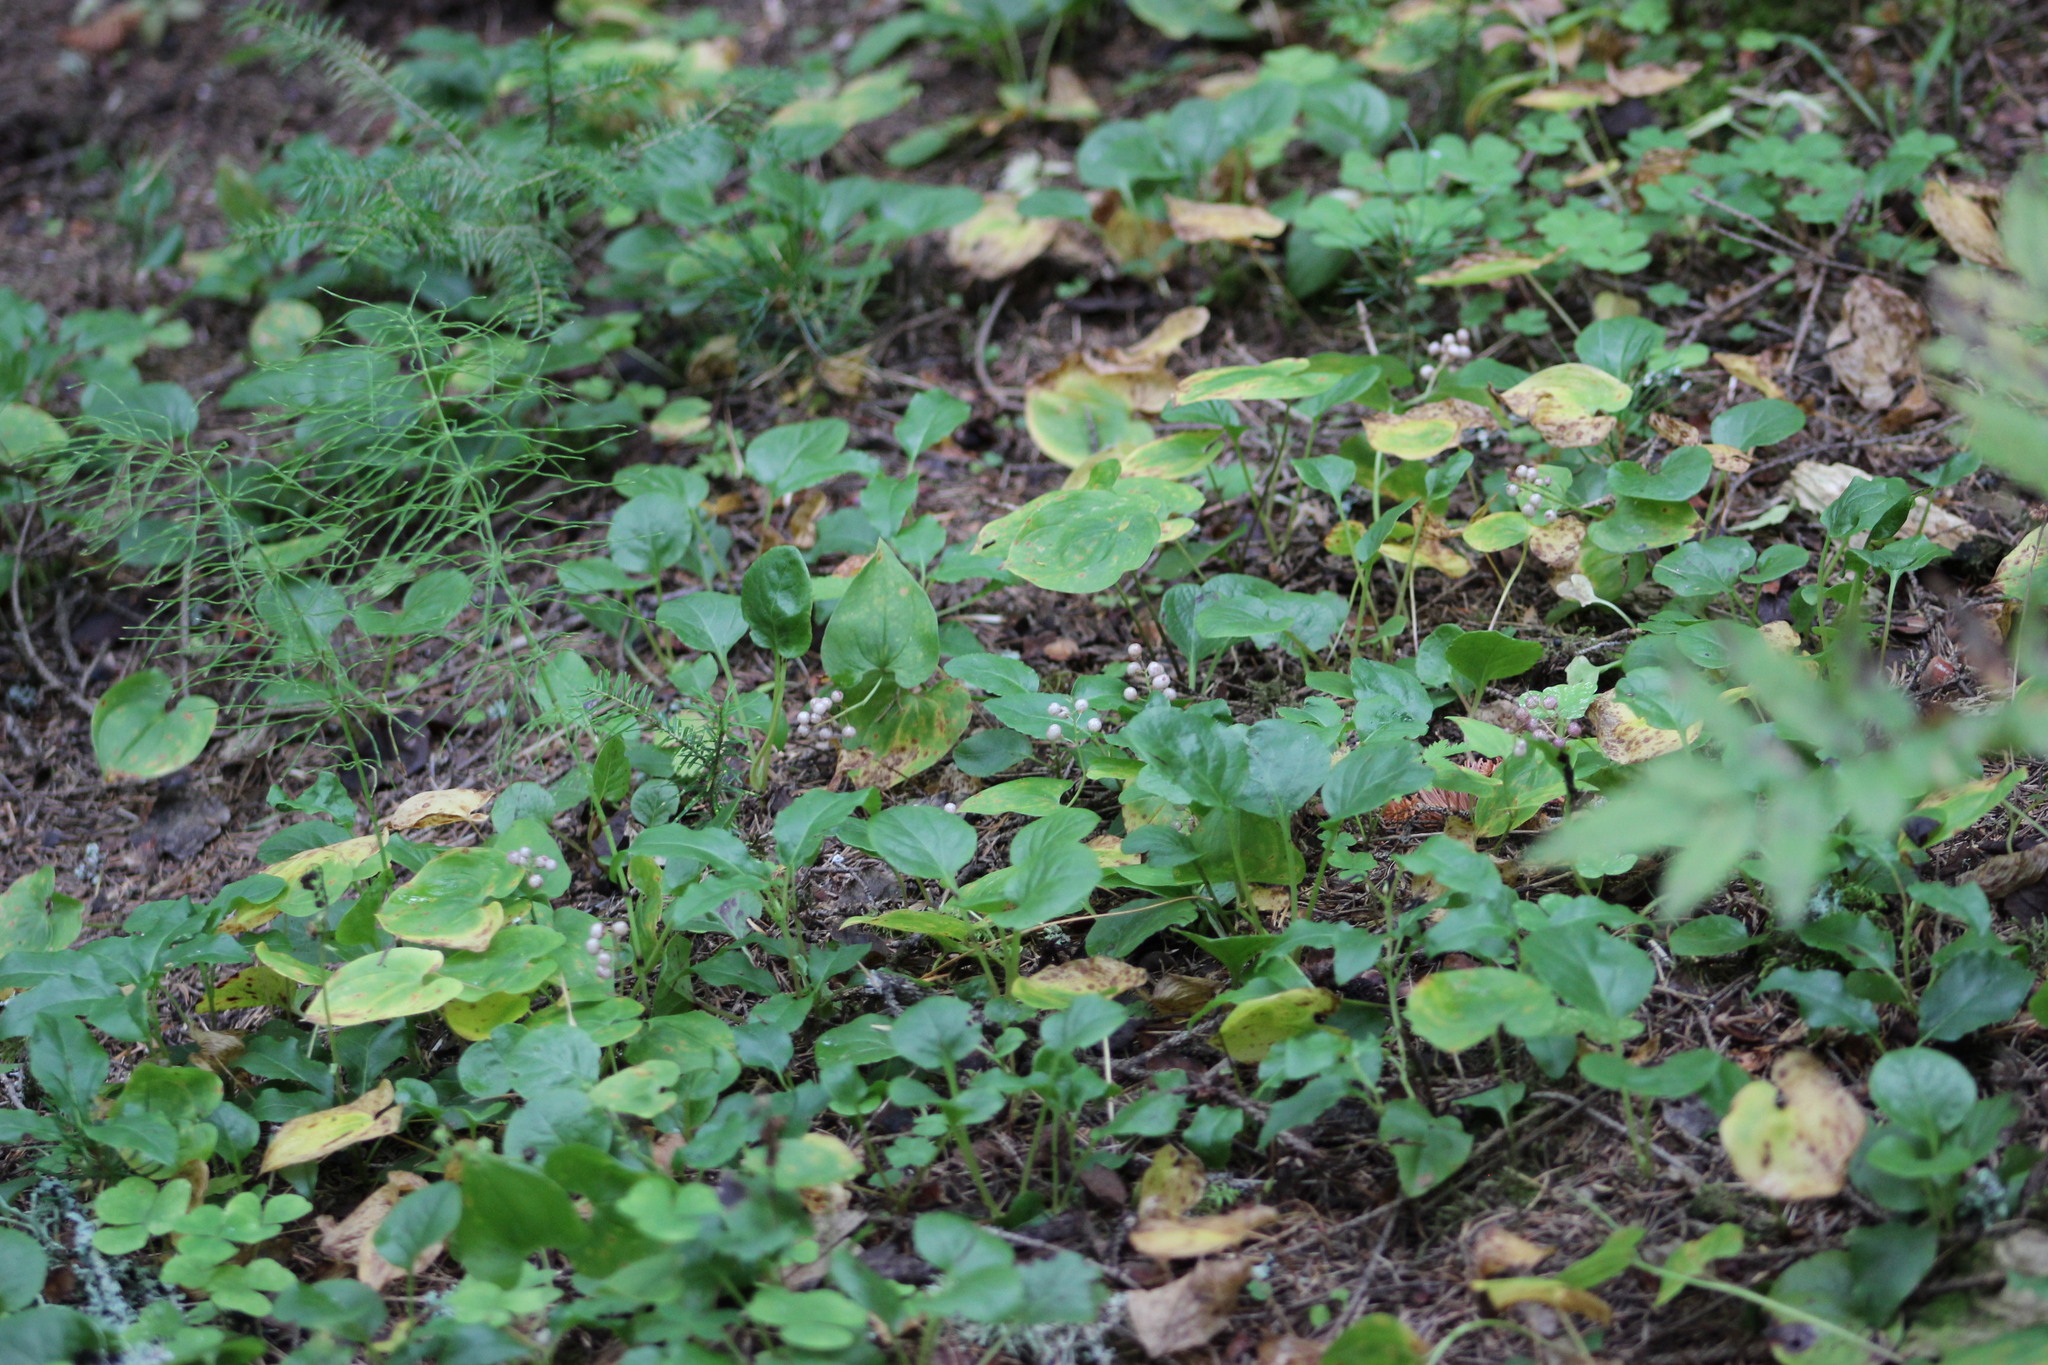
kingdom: Plantae
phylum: Tracheophyta
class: Liliopsida
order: Asparagales
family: Asparagaceae
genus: Maianthemum
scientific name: Maianthemum bifolium
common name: May lily
